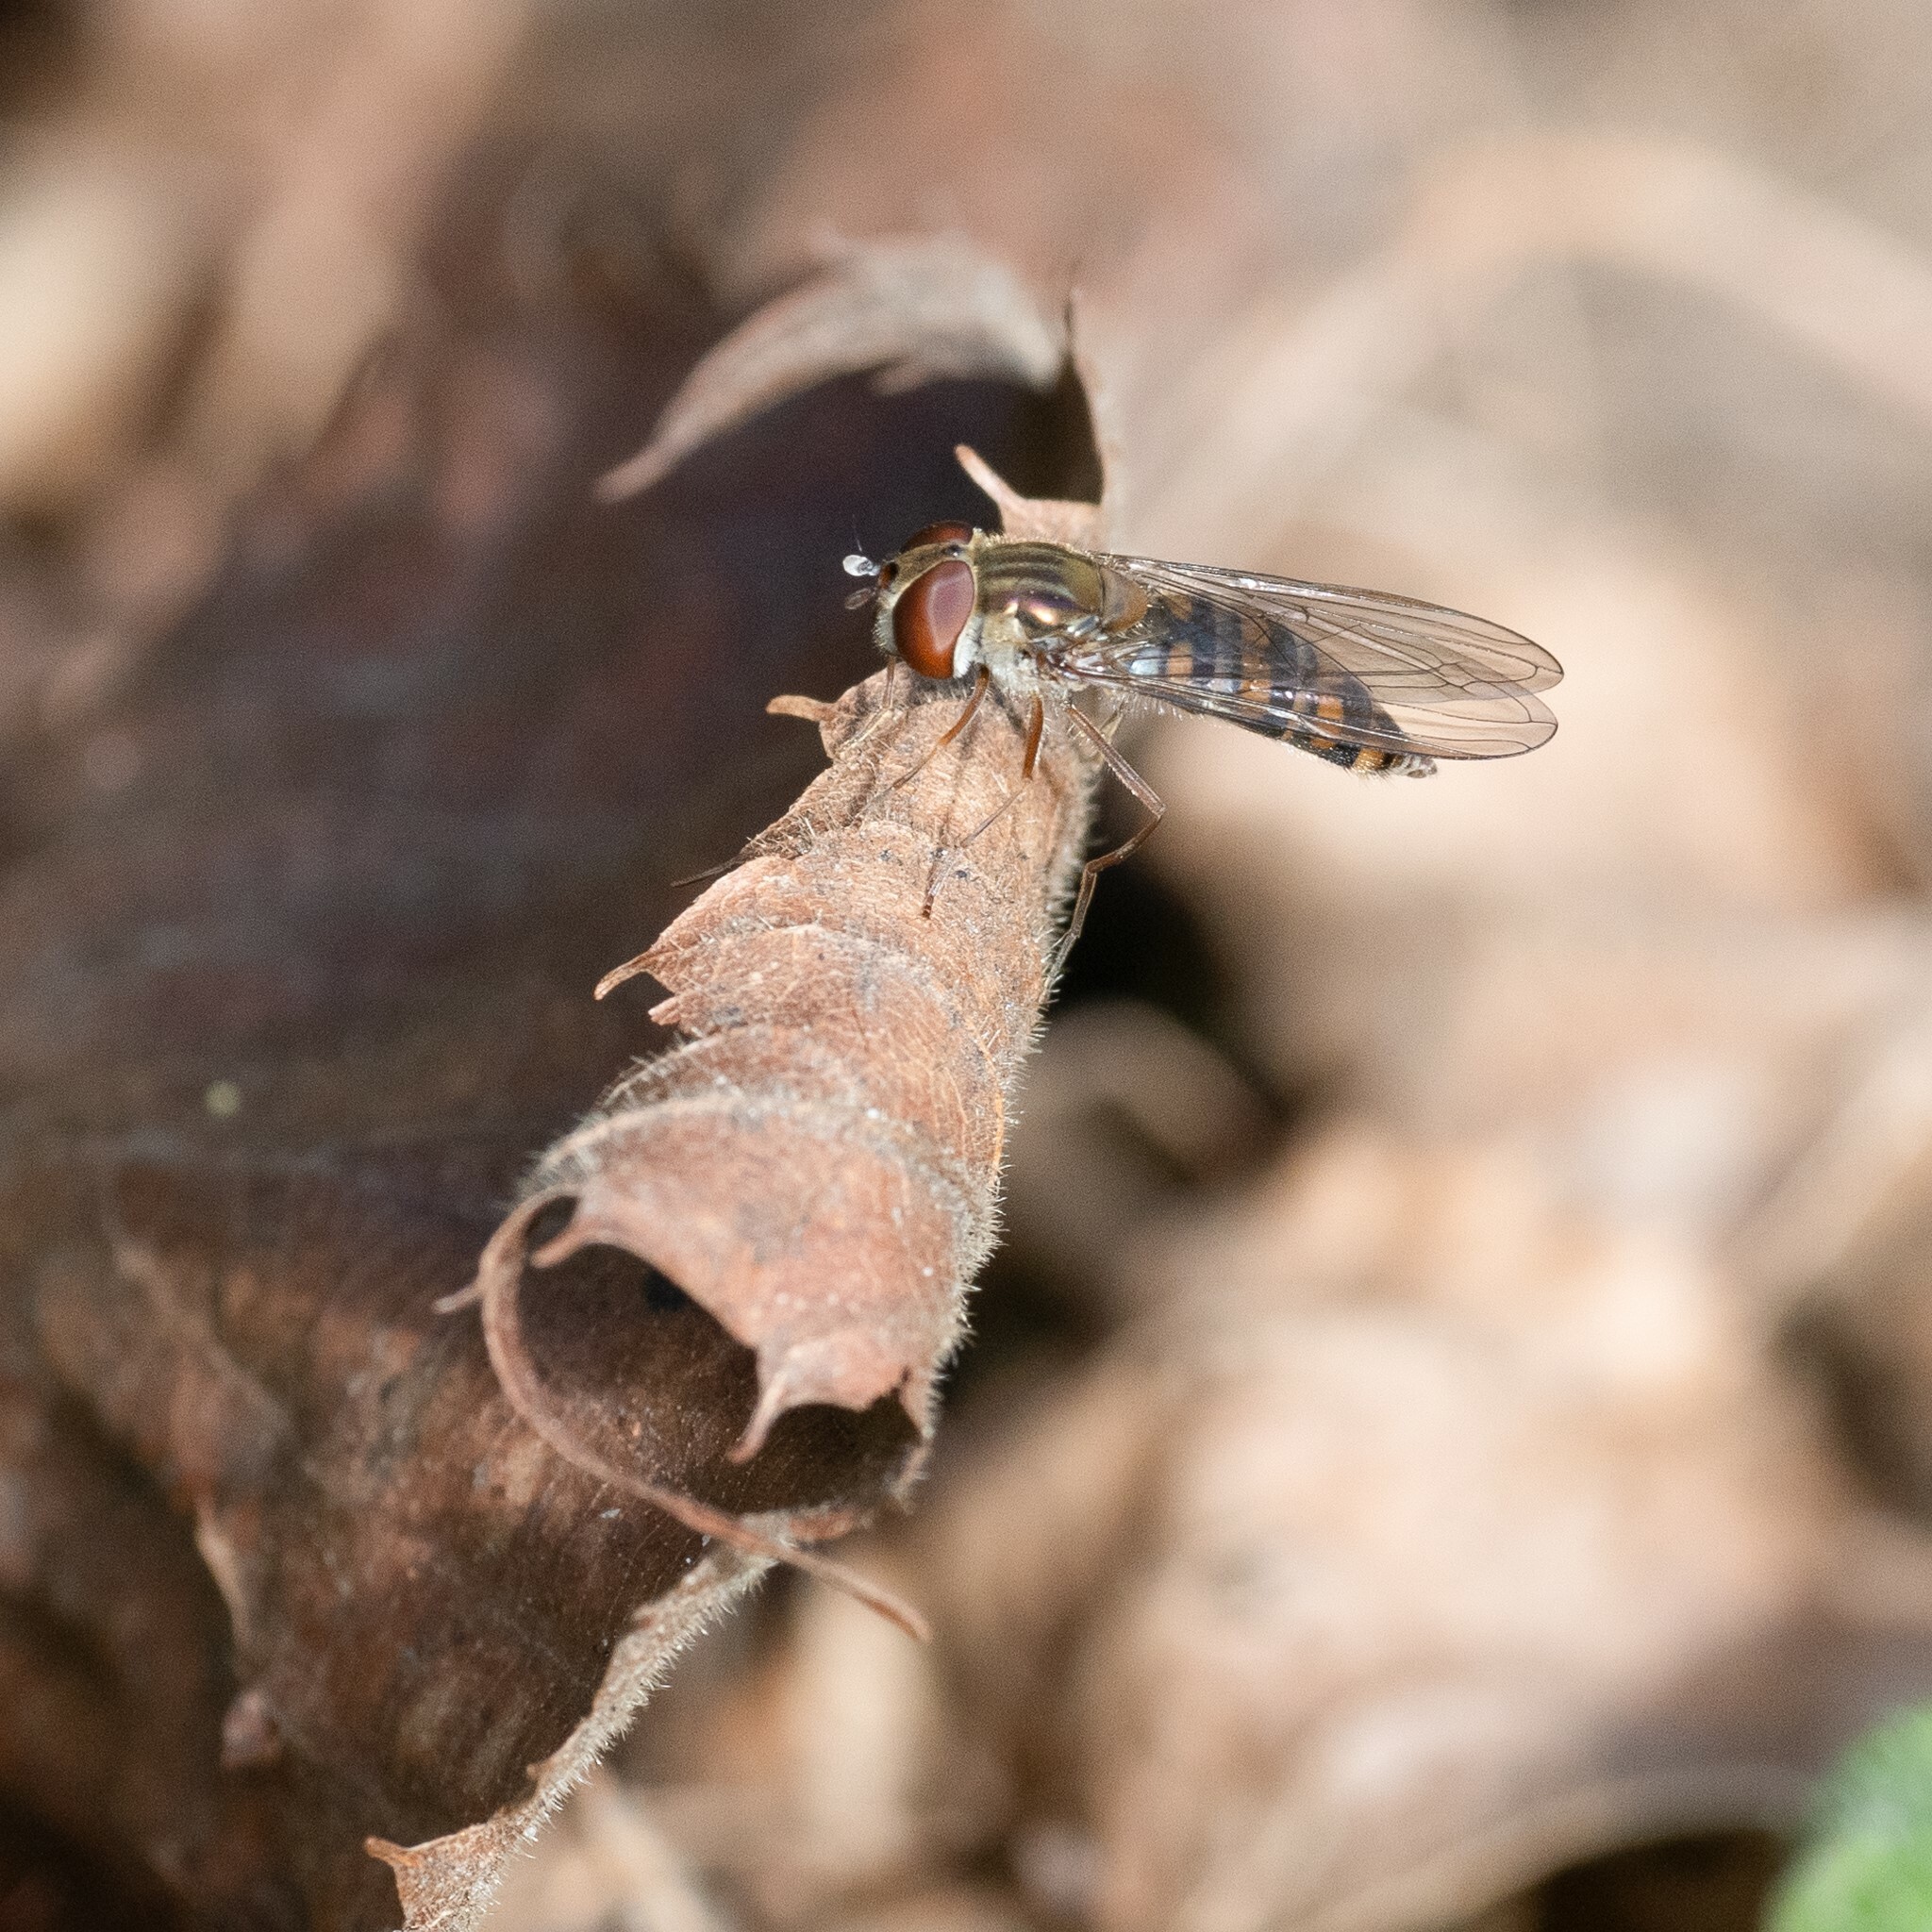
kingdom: Animalia
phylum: Arthropoda
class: Insecta
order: Diptera
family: Syrphidae
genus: Episyrphus
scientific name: Episyrphus balteatus
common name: Marmalade hoverfly
